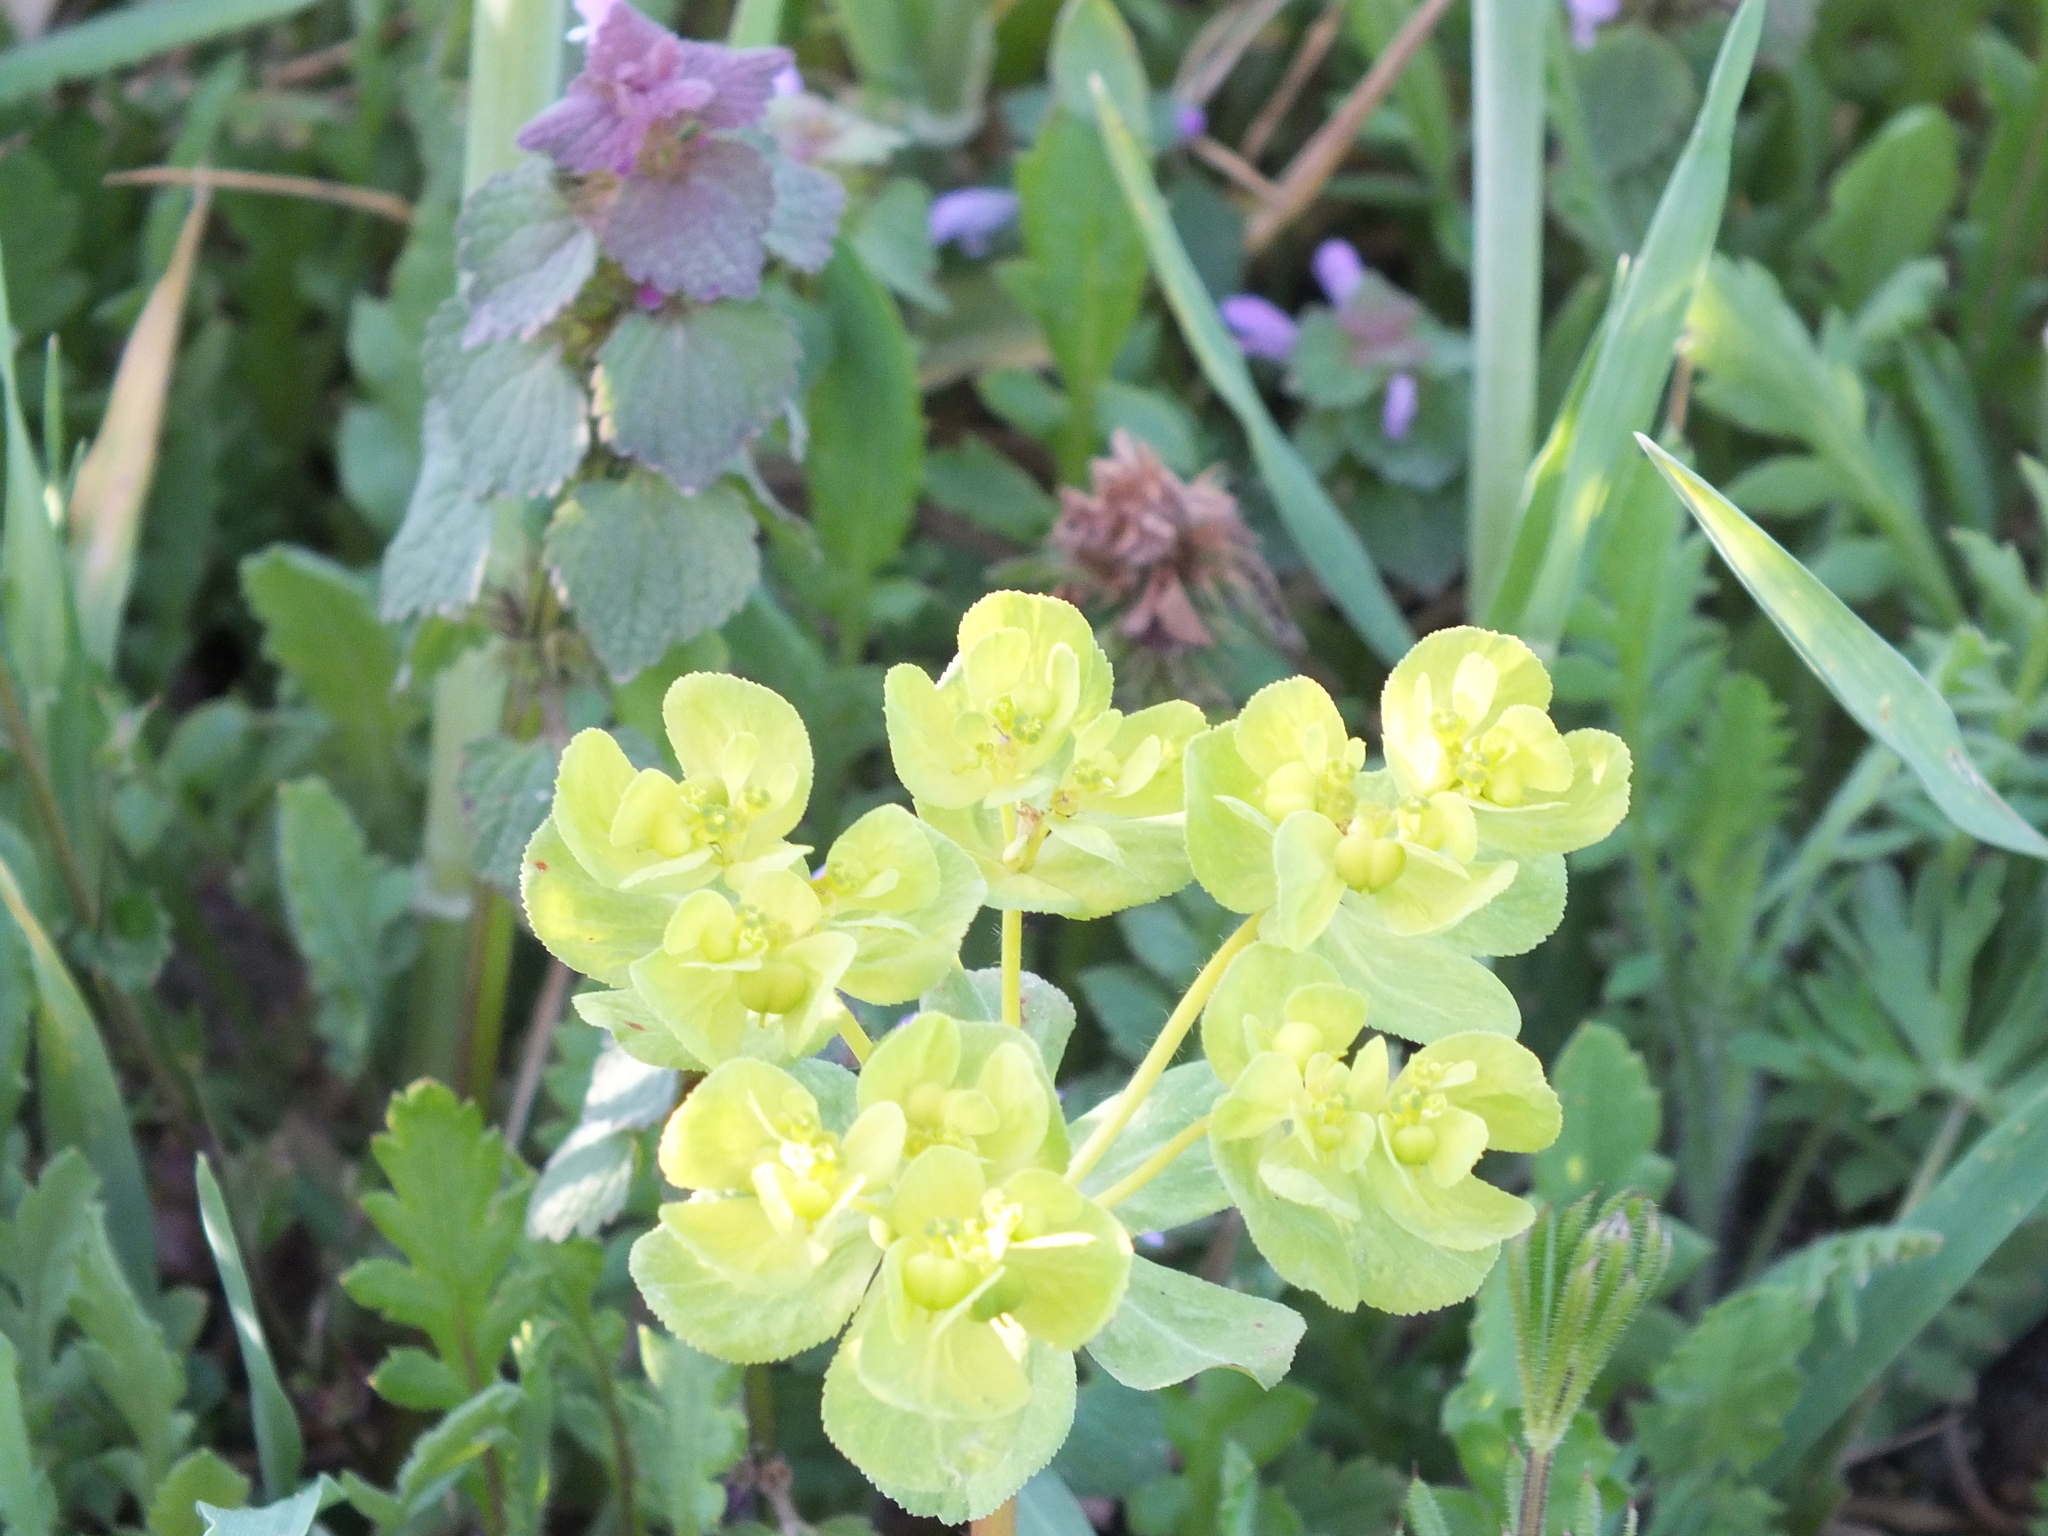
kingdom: Plantae
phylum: Tracheophyta
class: Magnoliopsida
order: Malpighiales
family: Euphorbiaceae
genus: Euphorbia
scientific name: Euphorbia helioscopia
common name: Sun spurge
